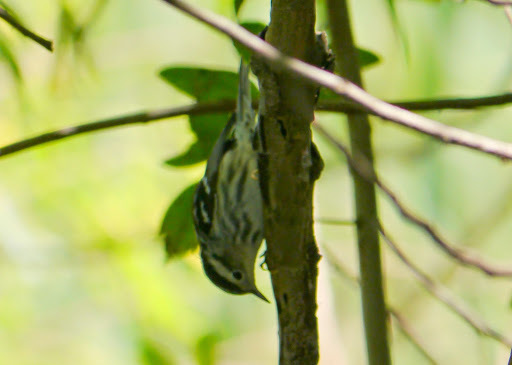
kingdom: Animalia
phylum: Chordata
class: Aves
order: Passeriformes
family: Parulidae
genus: Mniotilta
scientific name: Mniotilta varia
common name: Black-and-white warbler
